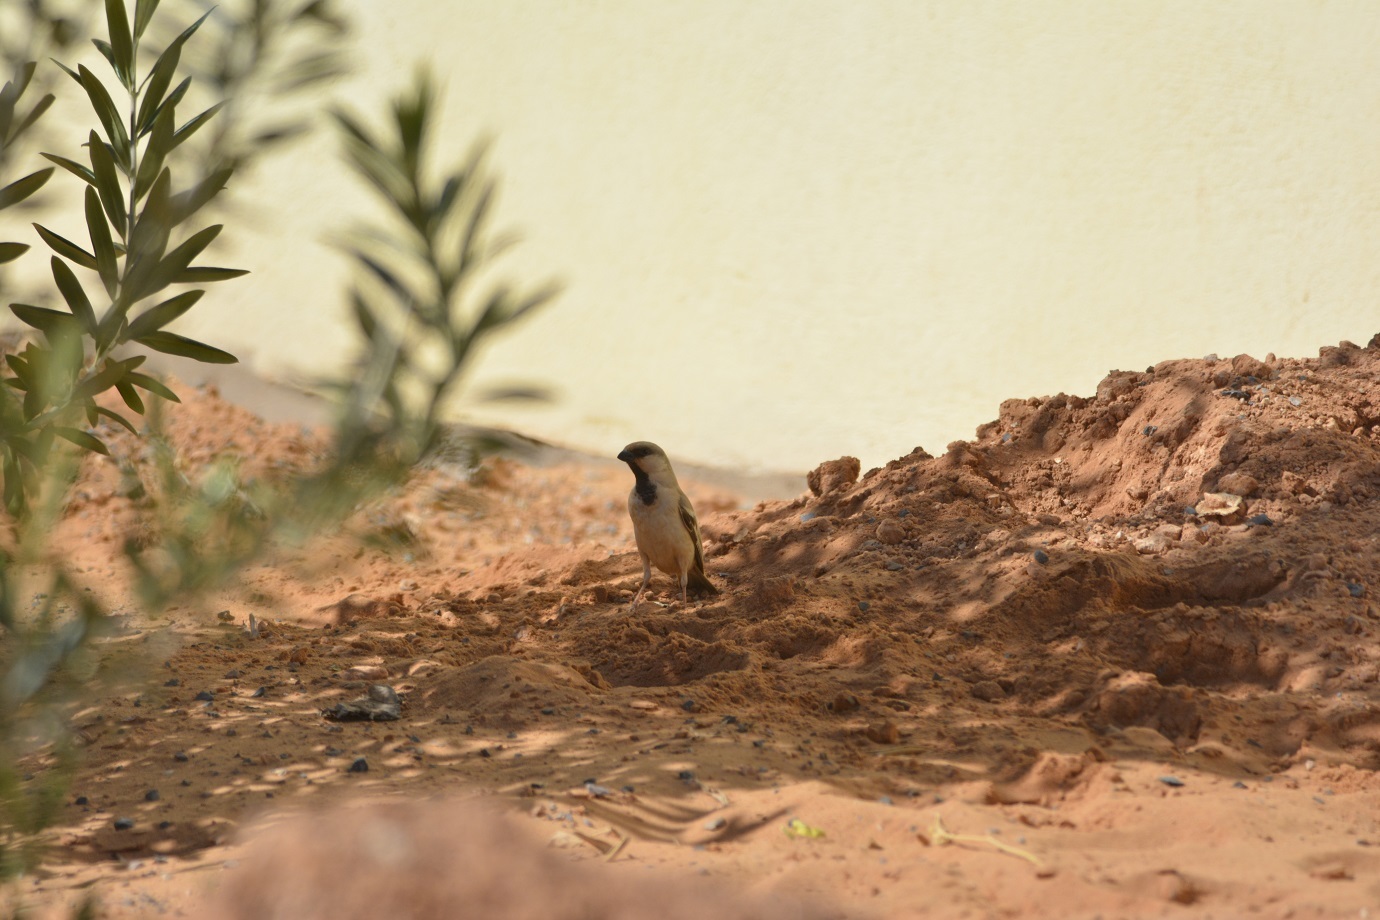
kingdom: Animalia
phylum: Chordata
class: Aves
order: Passeriformes
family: Passeridae
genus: Passer
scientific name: Passer simplex
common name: Desert sparrow
